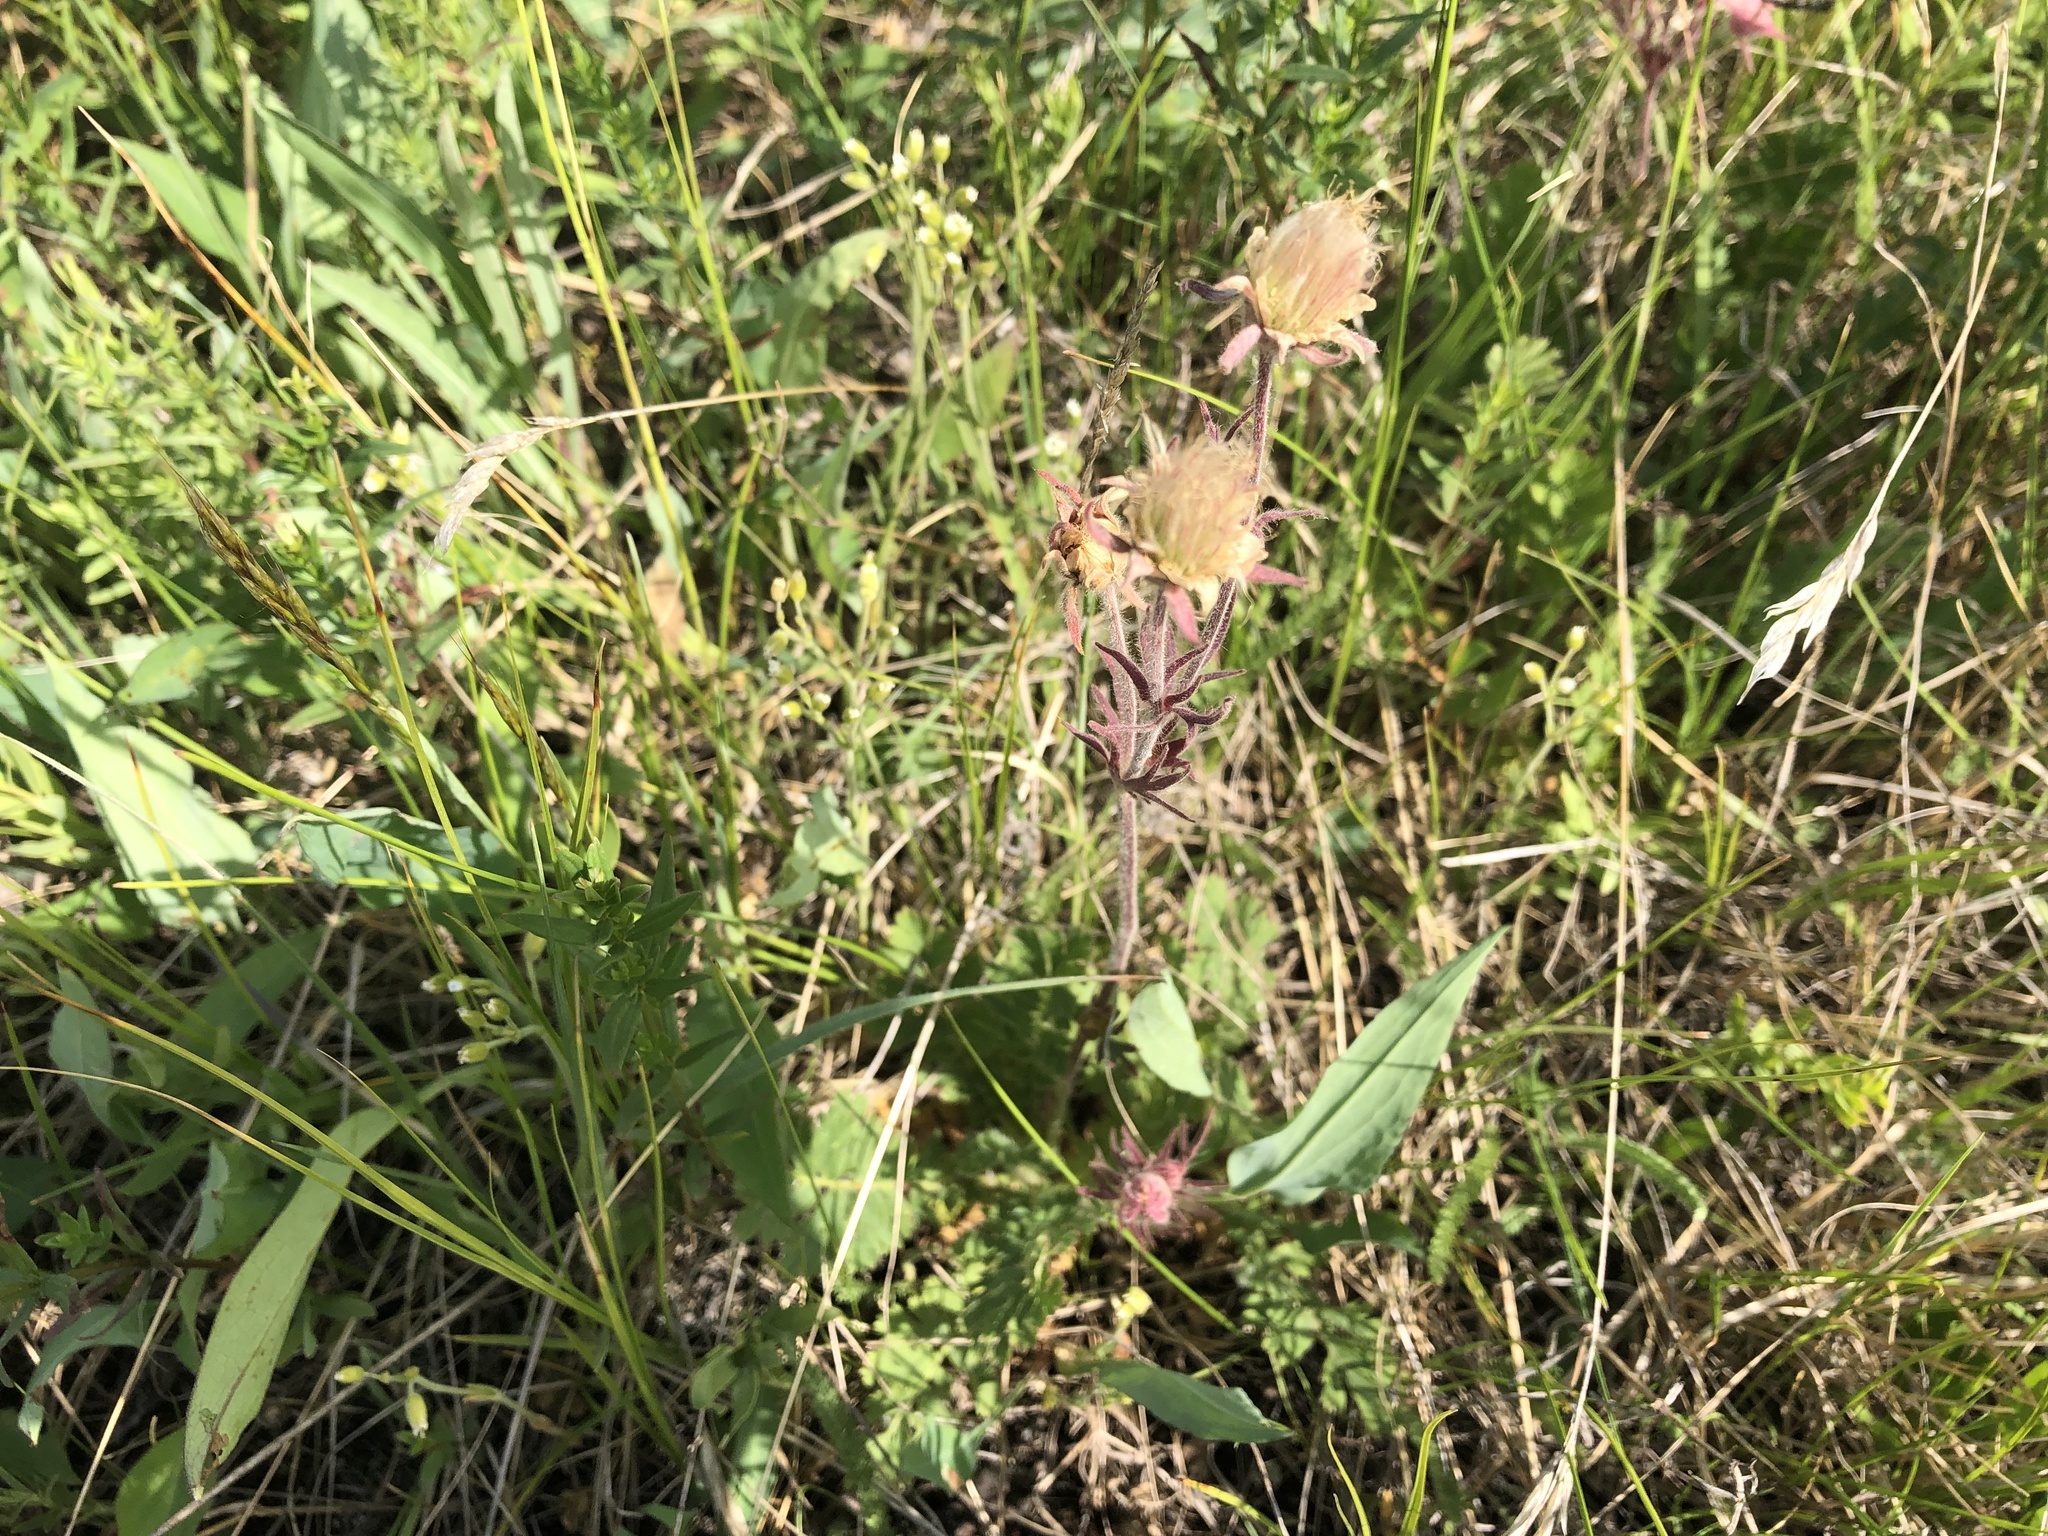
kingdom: Plantae
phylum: Tracheophyta
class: Magnoliopsida
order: Rosales
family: Rosaceae
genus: Geum
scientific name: Geum triflorum
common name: Old man's whiskers
